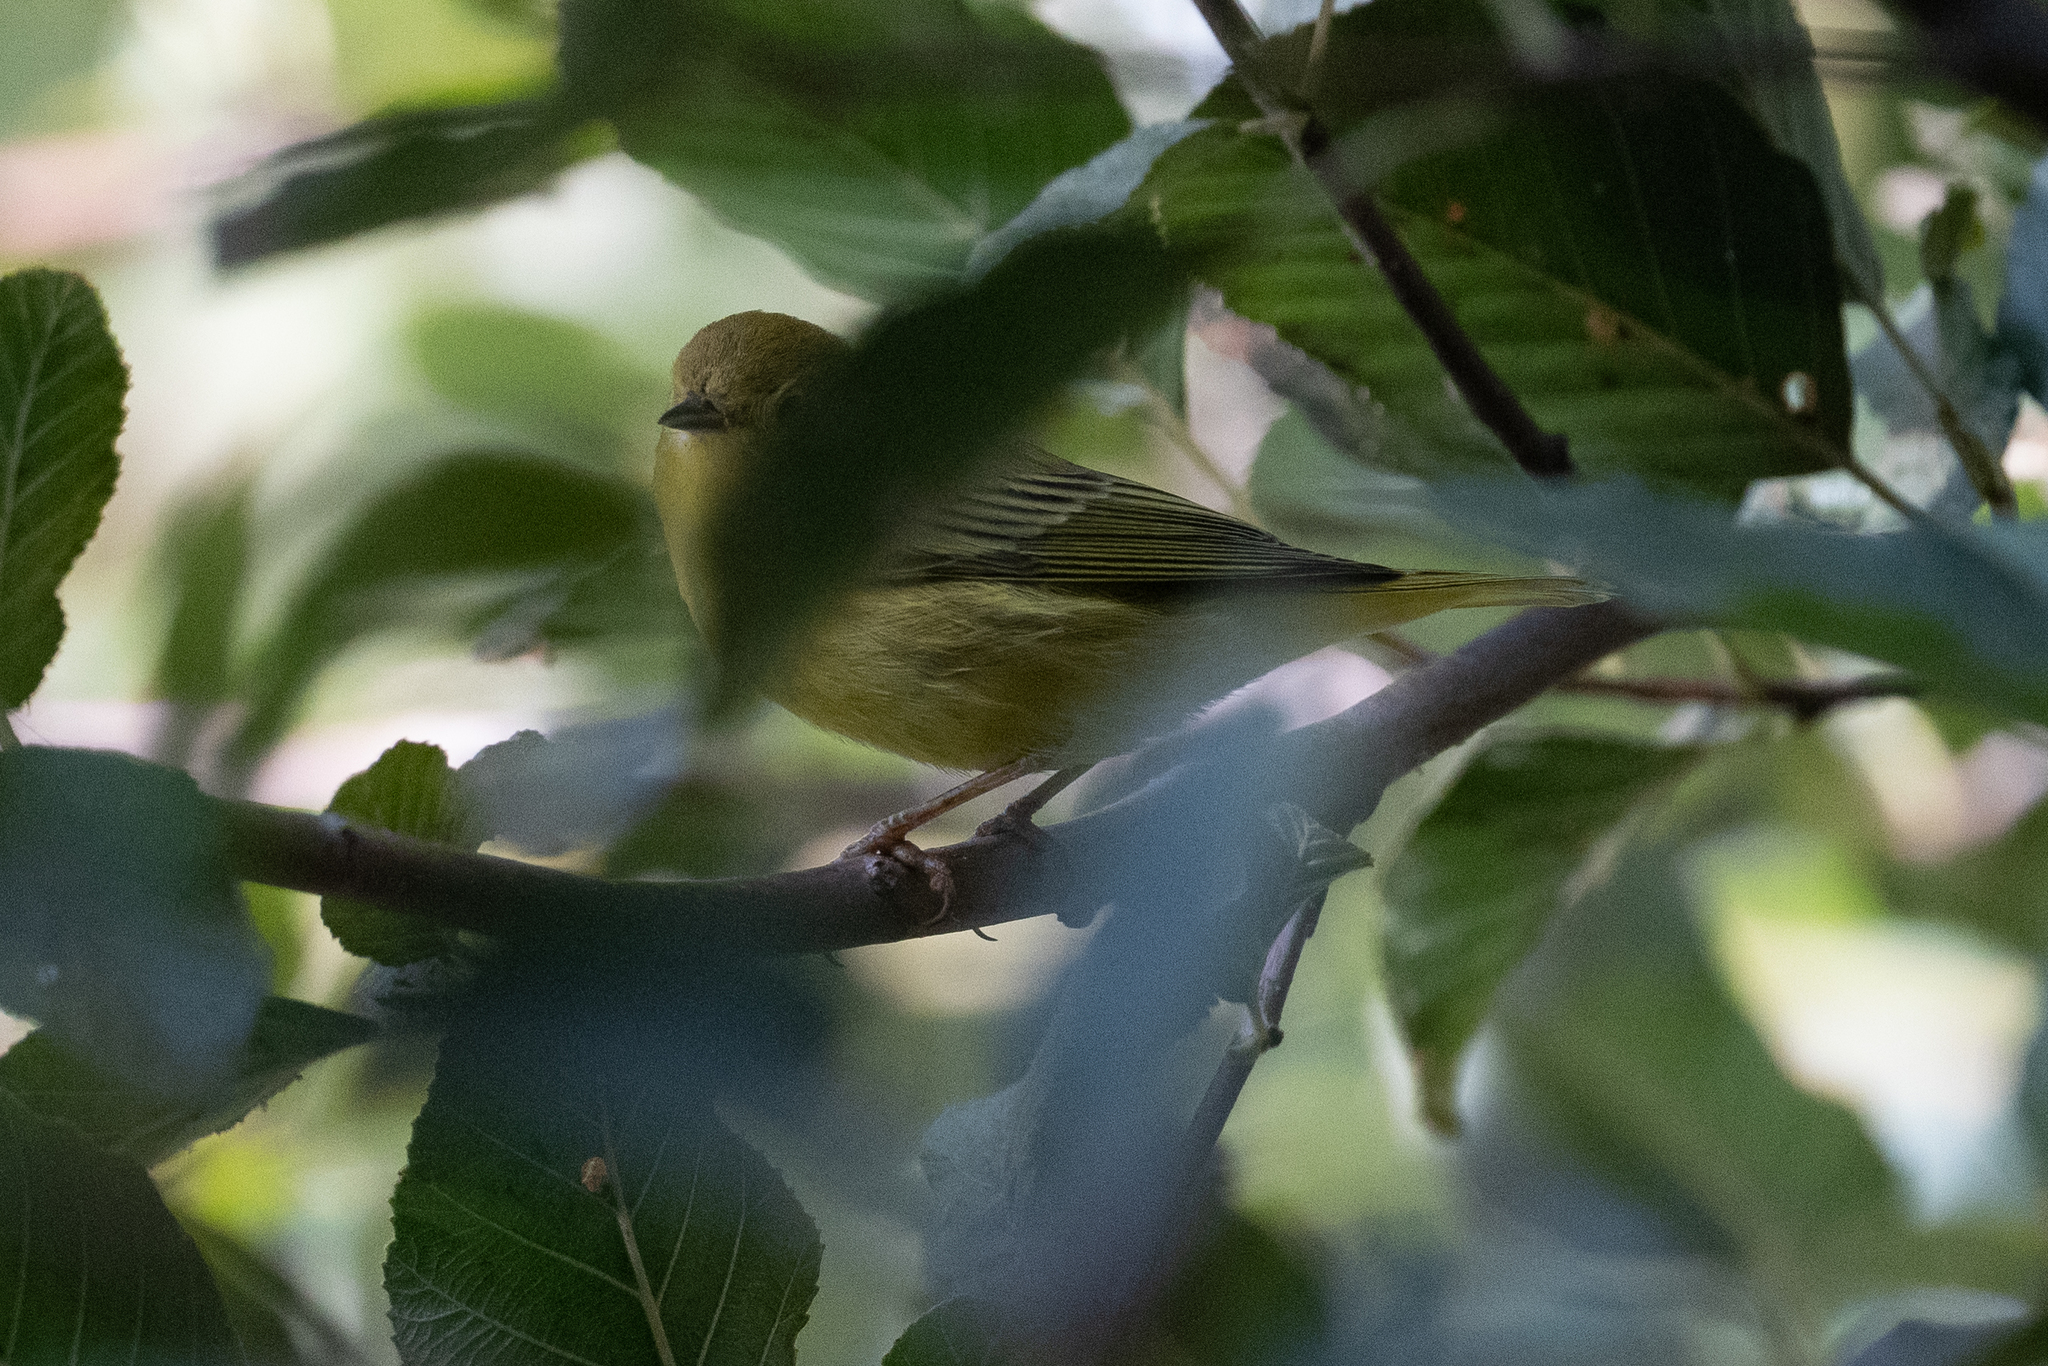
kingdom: Animalia
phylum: Chordata
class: Aves
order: Passeriformes
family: Parulidae
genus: Setophaga
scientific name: Setophaga petechia
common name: Yellow warbler
